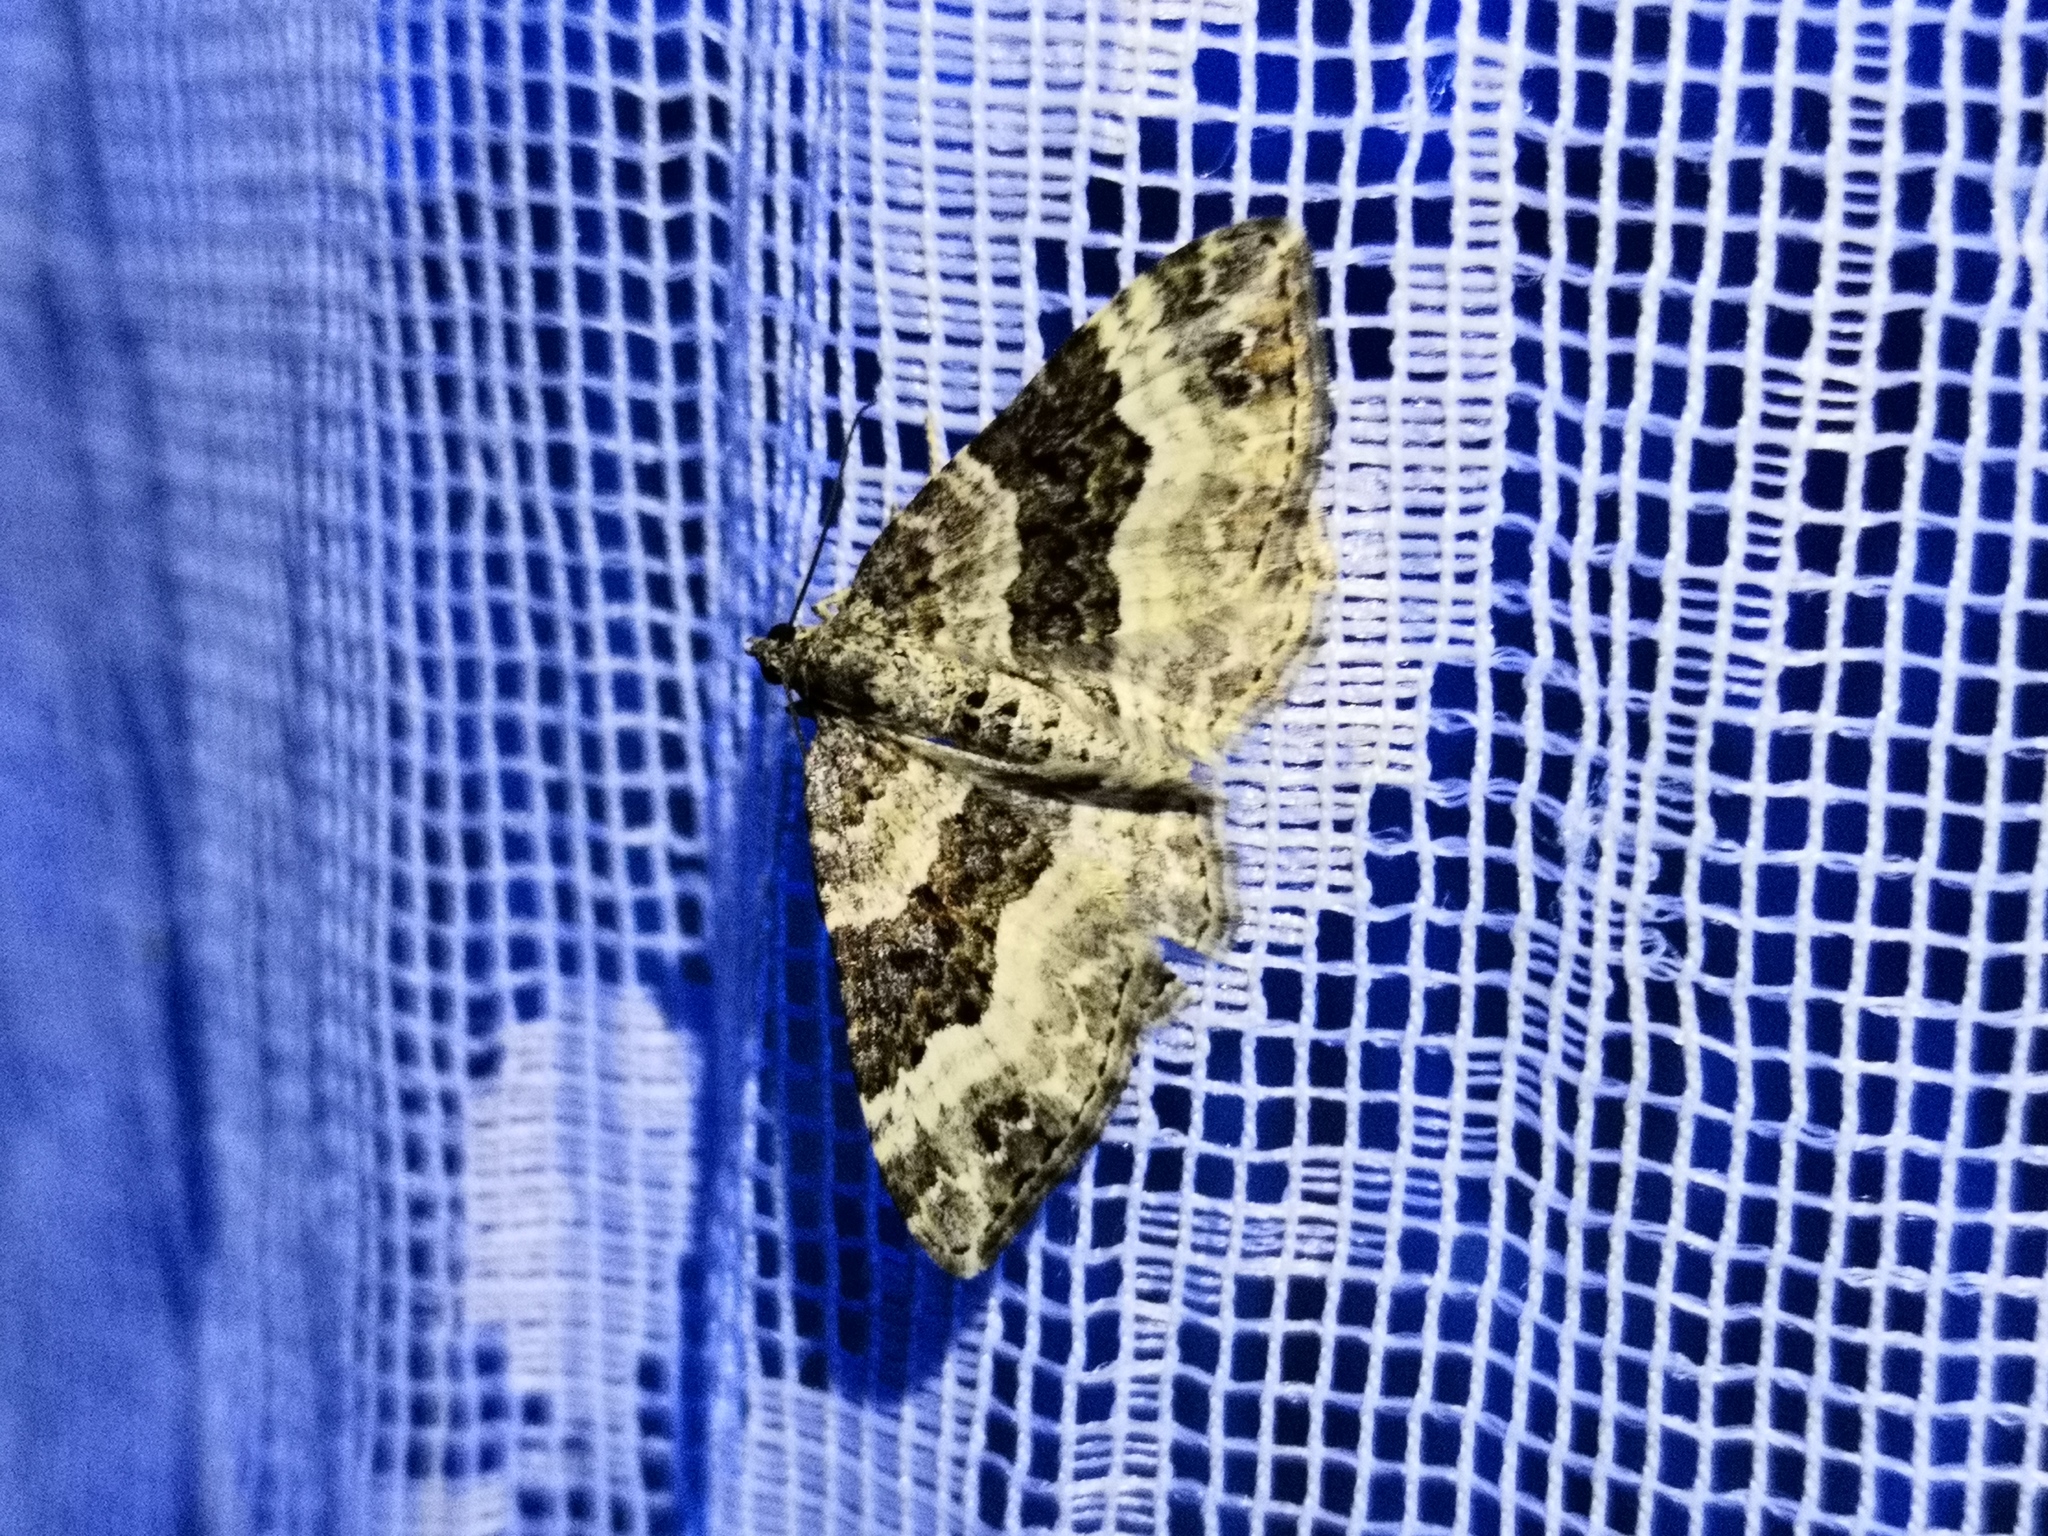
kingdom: Animalia
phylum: Arthropoda
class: Insecta
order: Lepidoptera
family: Geometridae
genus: Epirrhoe
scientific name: Epirrhoe alternata
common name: Common carpet
